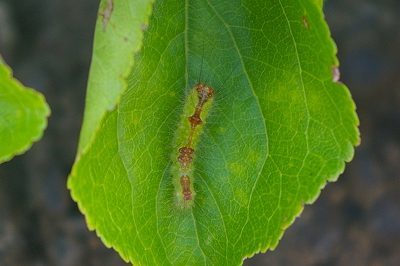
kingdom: Animalia
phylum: Arthropoda
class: Insecta
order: Lepidoptera
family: Noctuidae
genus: Acronicta
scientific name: Acronicta adaucta
